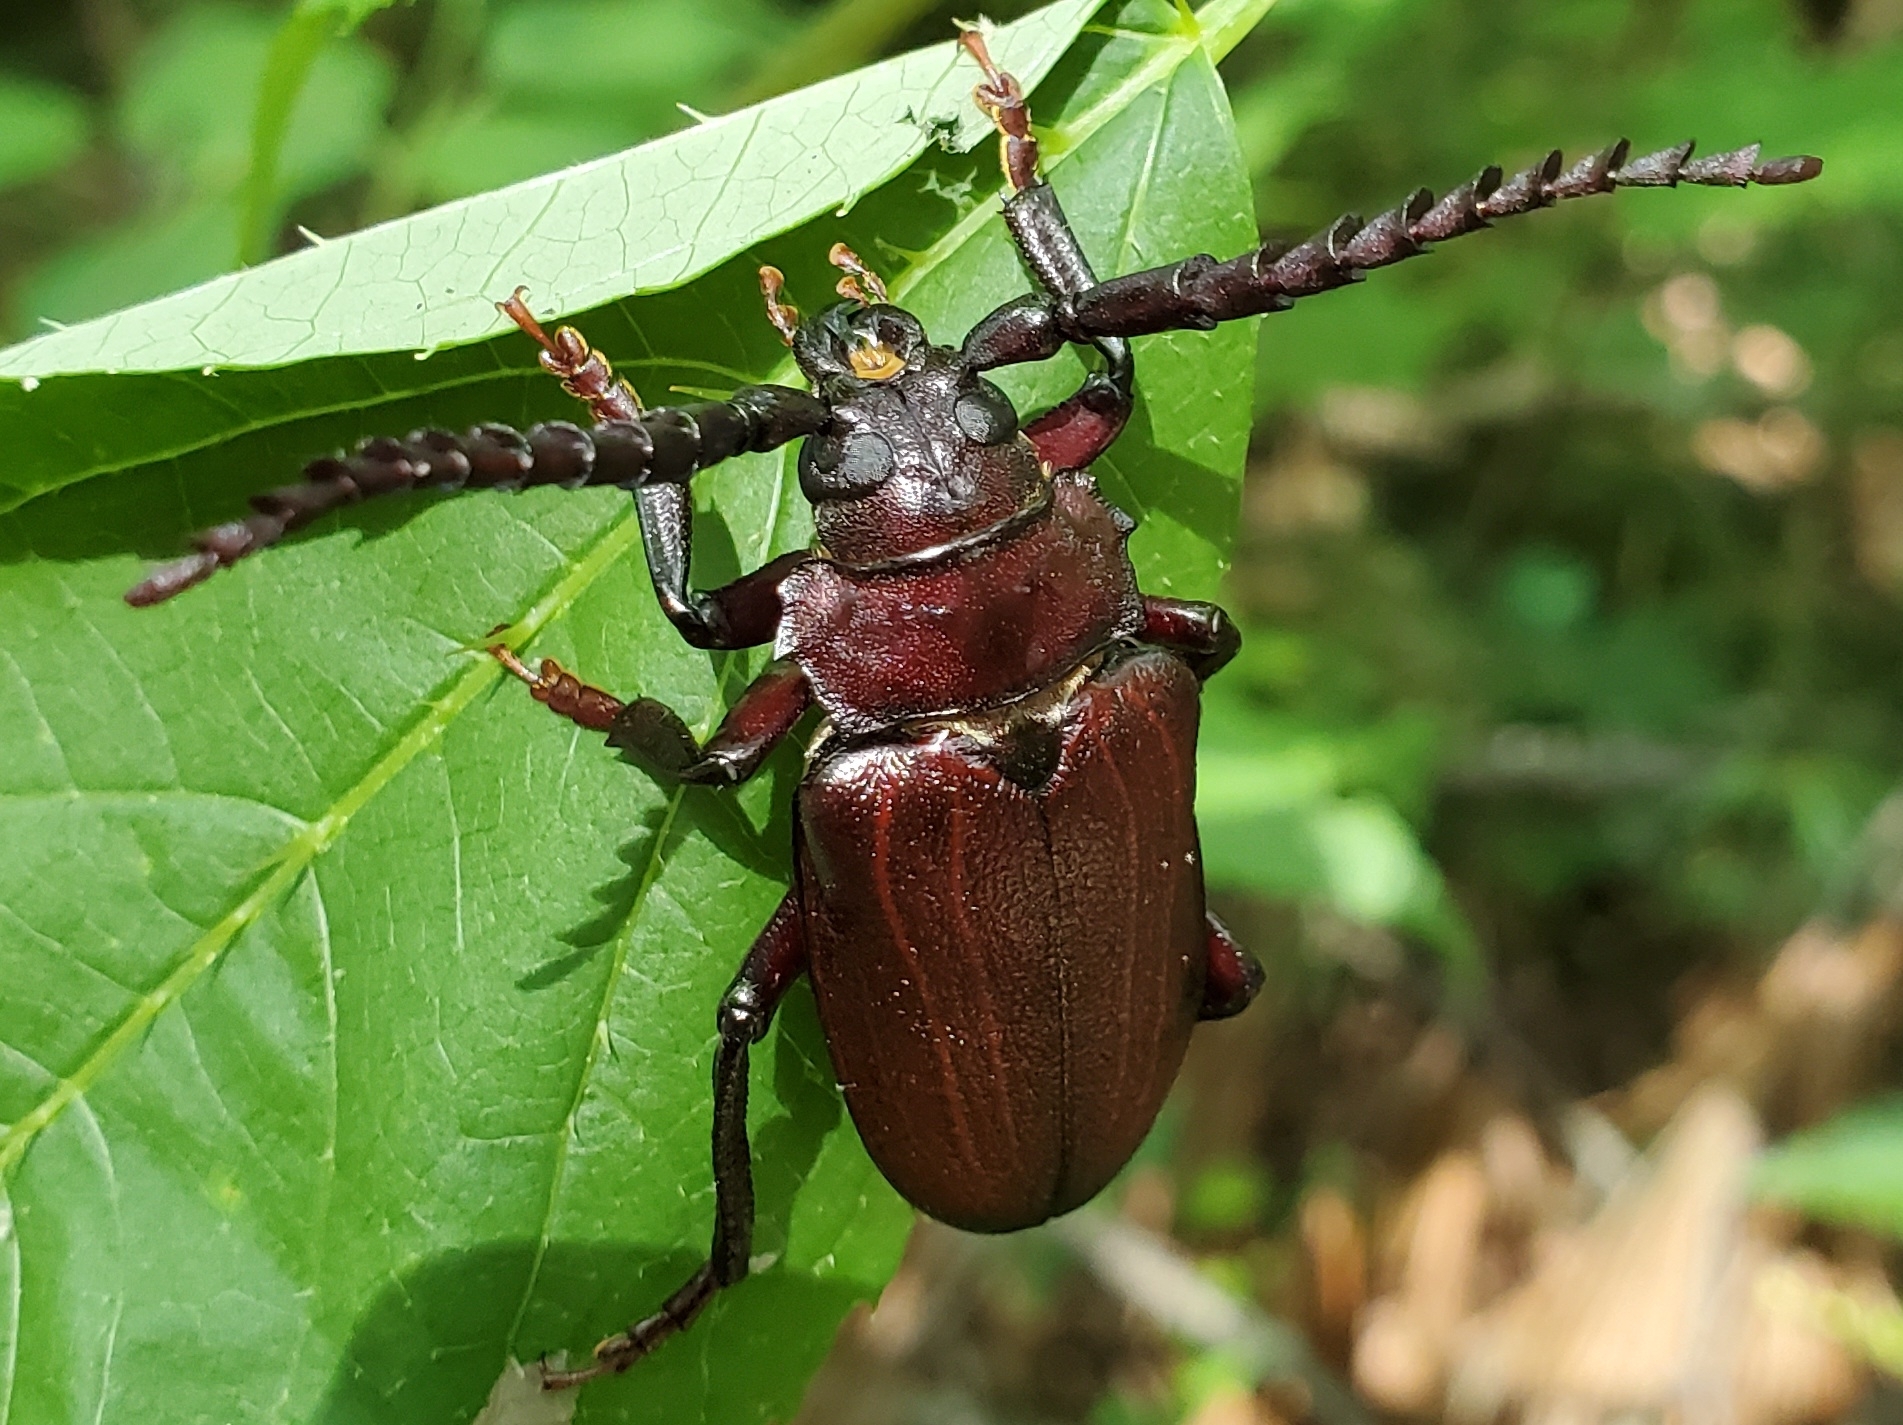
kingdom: Animalia
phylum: Arthropoda
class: Insecta
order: Coleoptera
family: Cerambycidae
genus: Prionus
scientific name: Prionus laticollis
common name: Broad necked prionus
